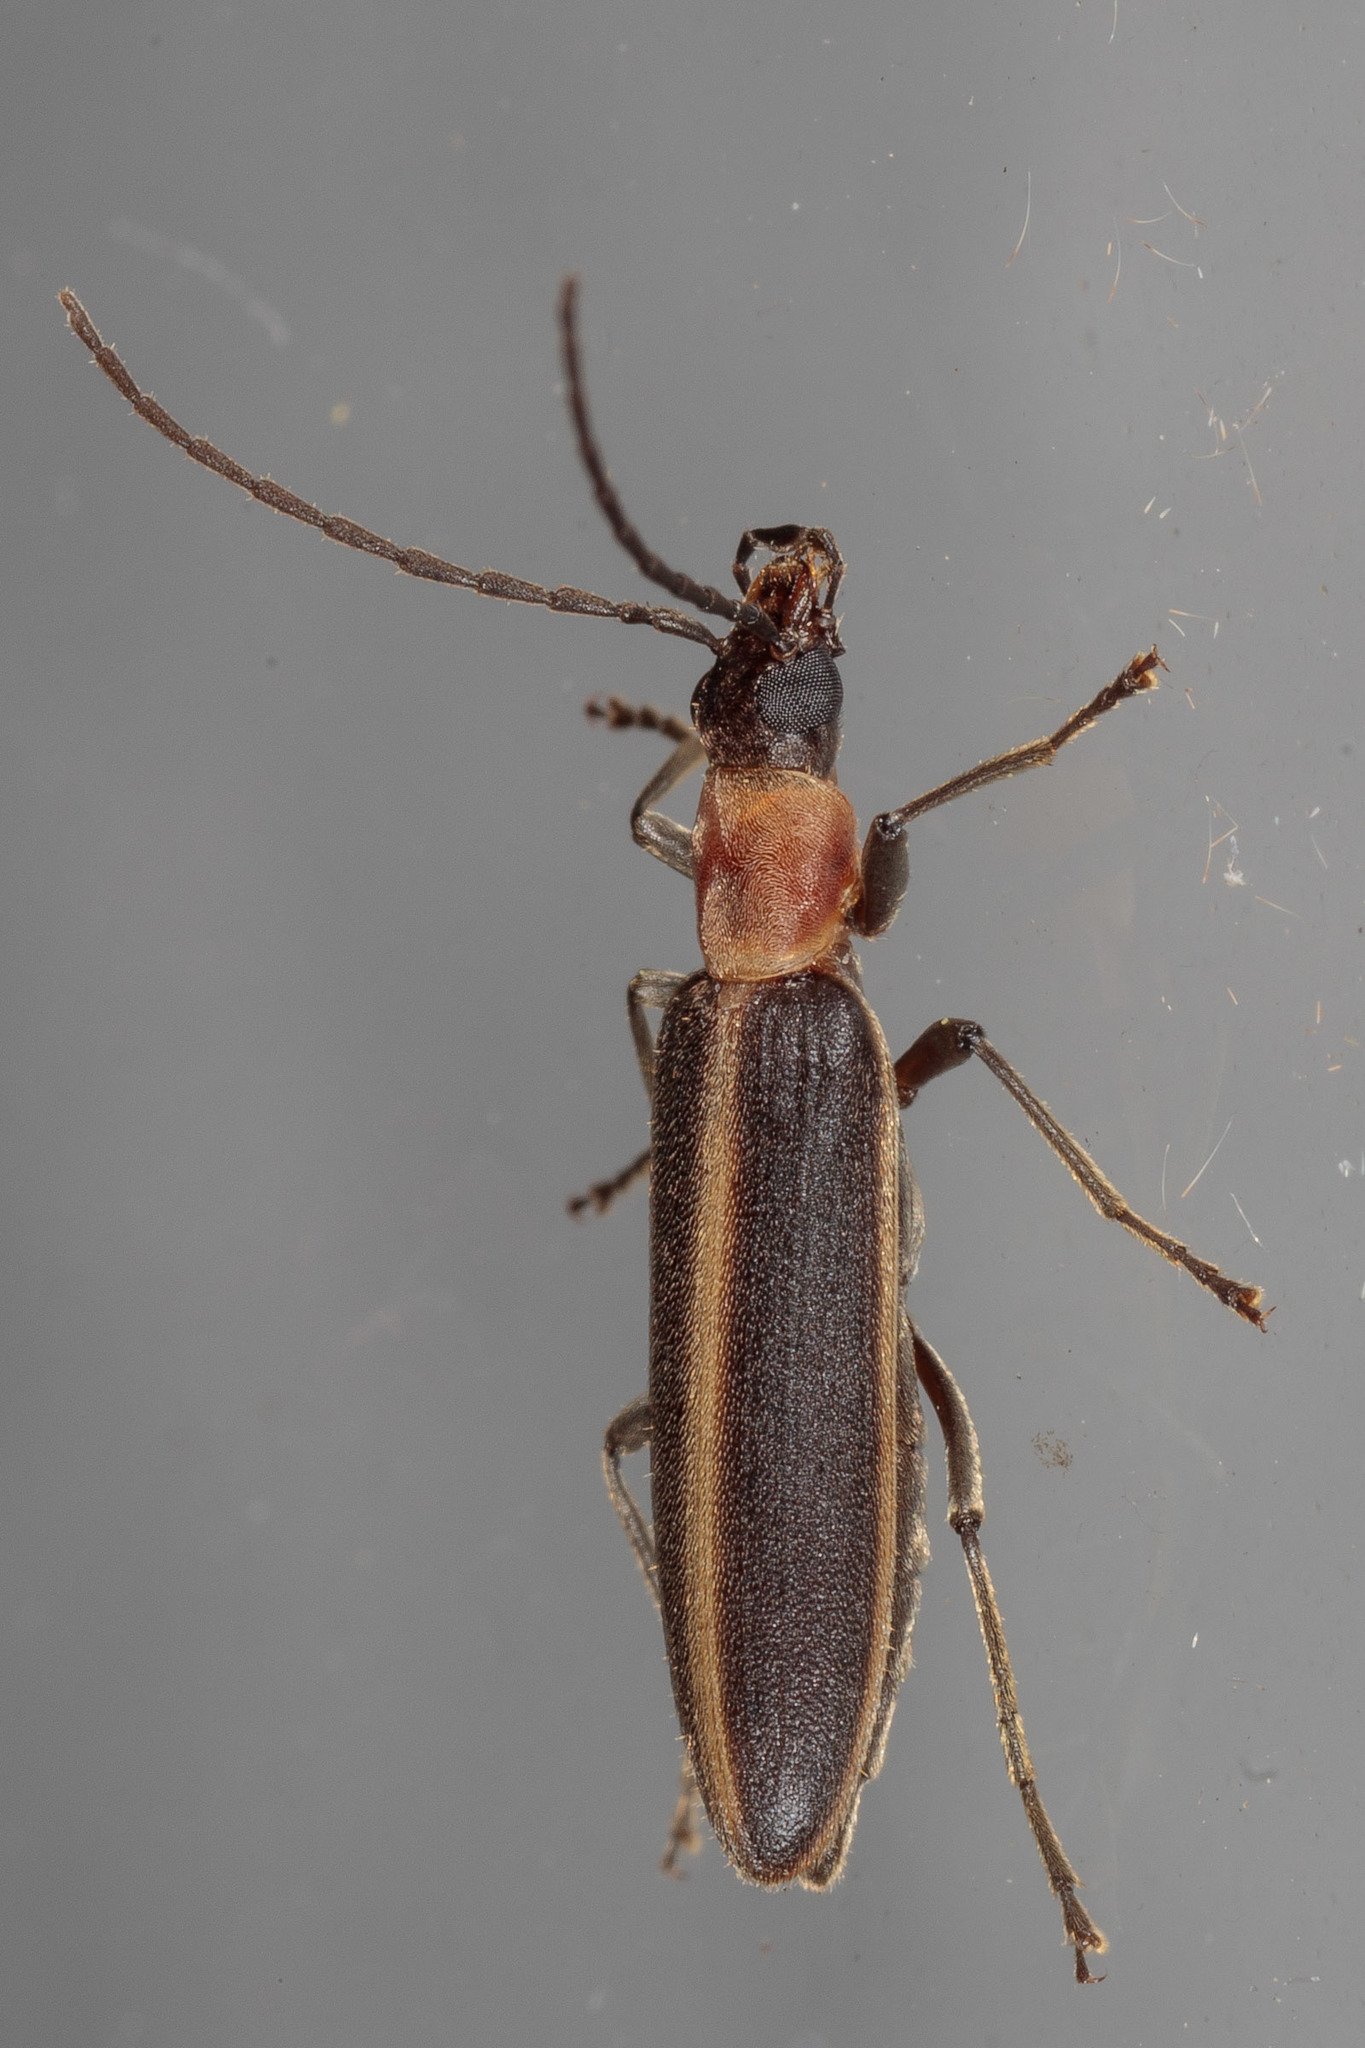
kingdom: Animalia
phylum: Arthropoda
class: Insecta
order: Coleoptera
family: Oedemeridae
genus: Oxycopis
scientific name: Oxycopis mimetica
